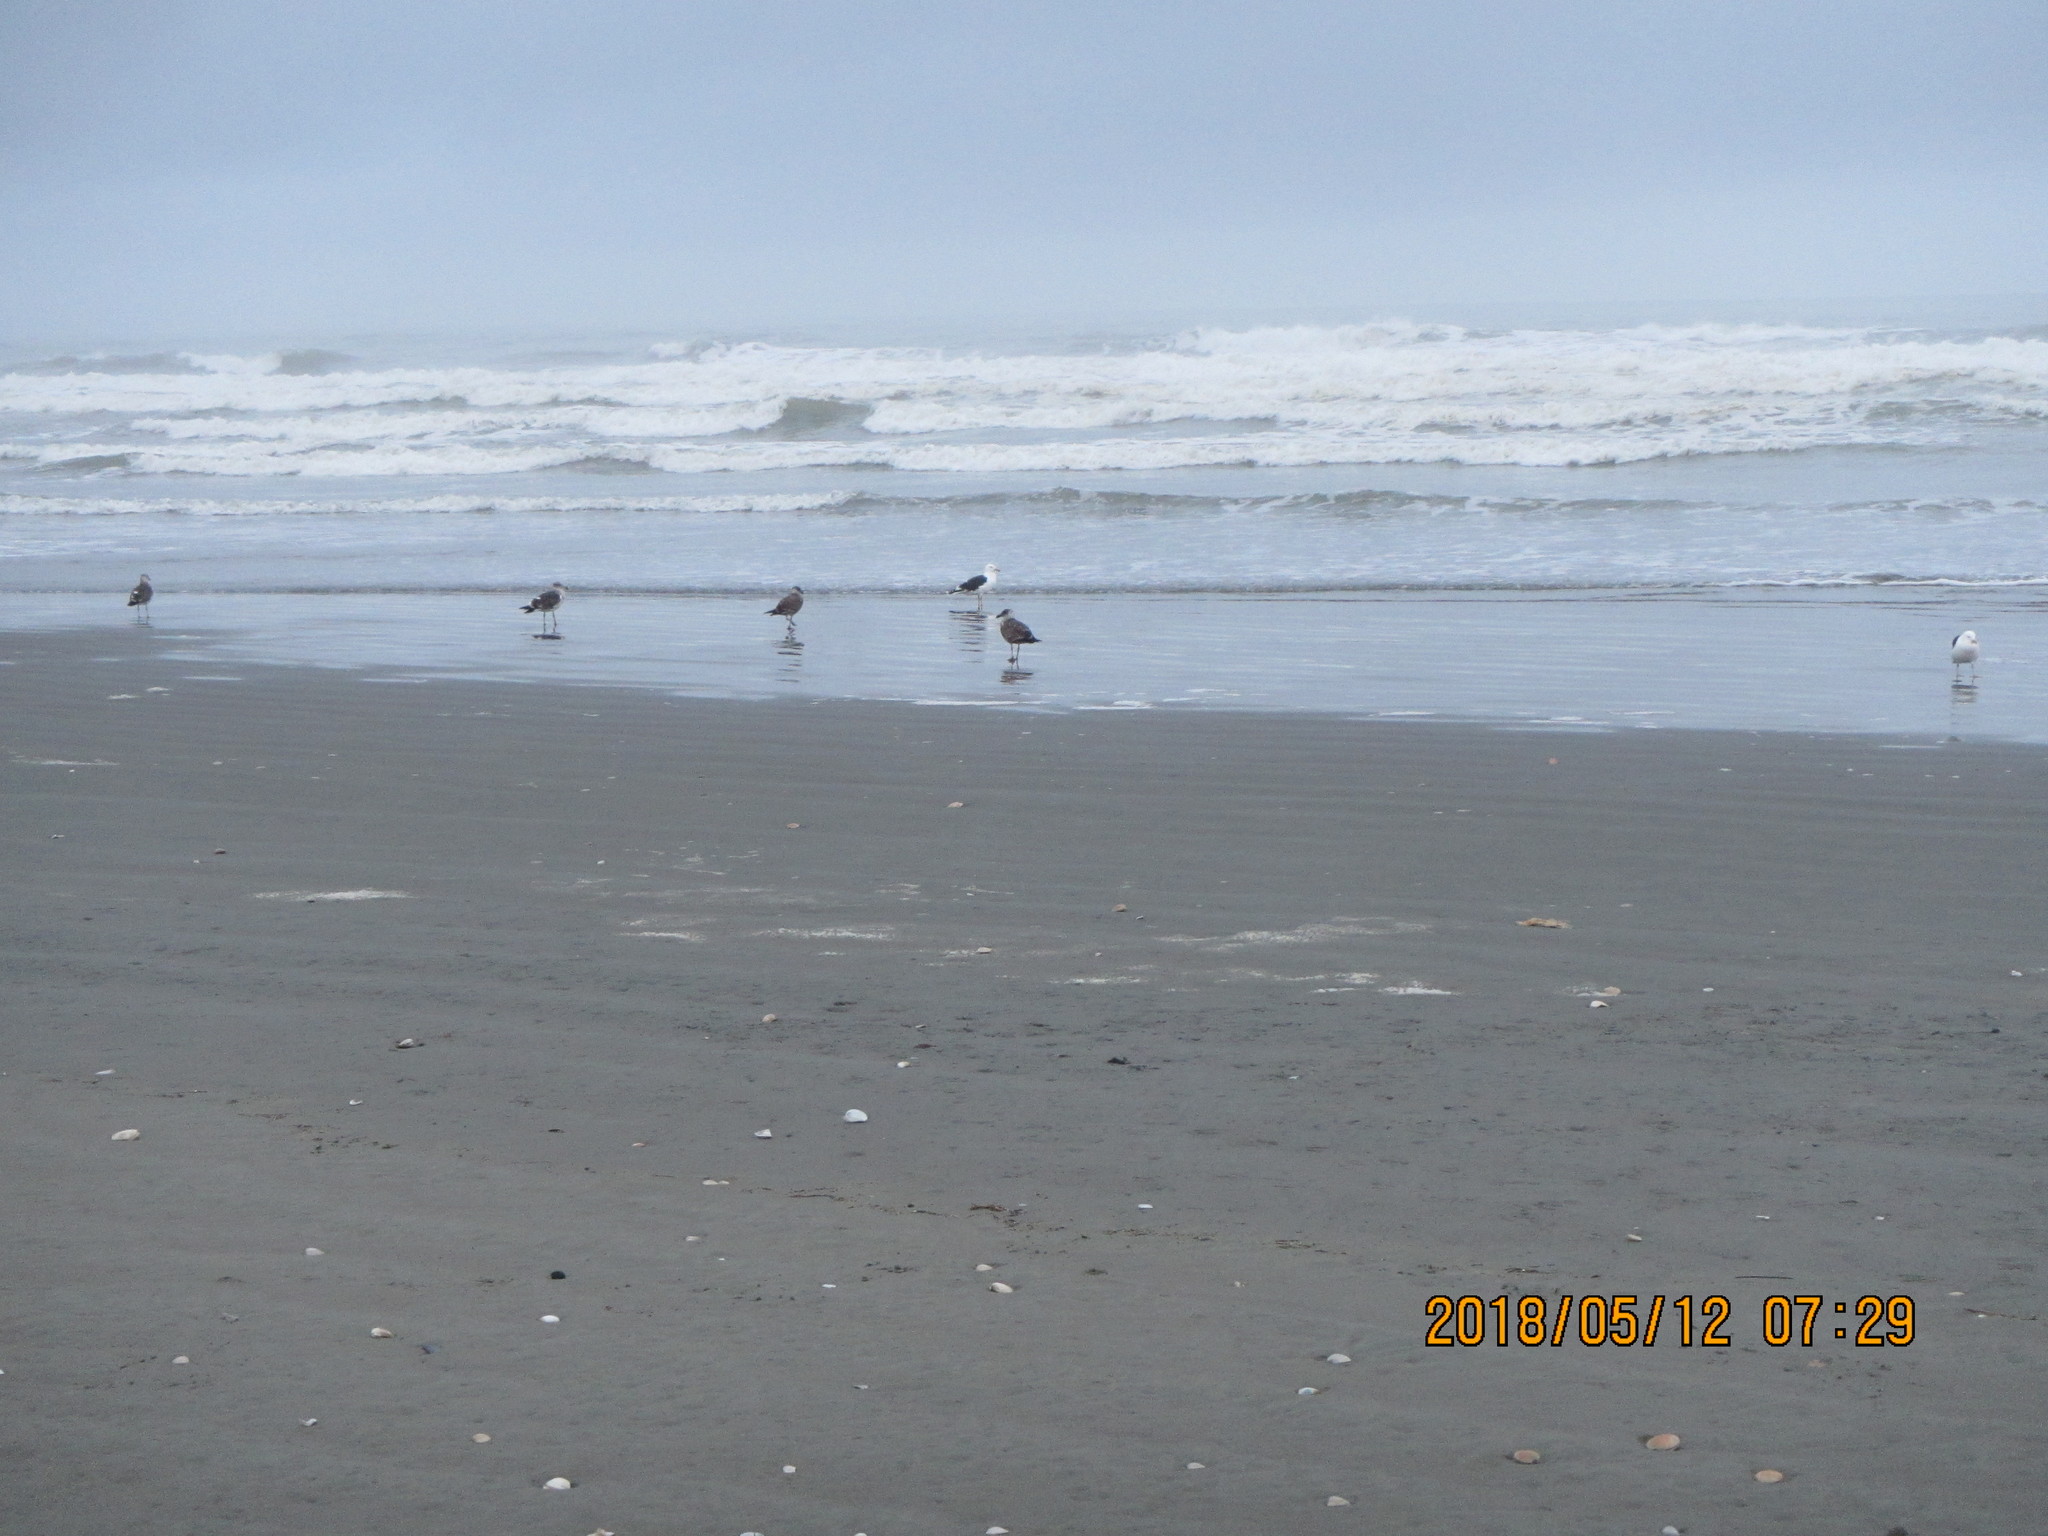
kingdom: Animalia
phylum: Chordata
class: Aves
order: Charadriiformes
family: Laridae
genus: Larus
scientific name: Larus dominicanus
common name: Kelp gull
